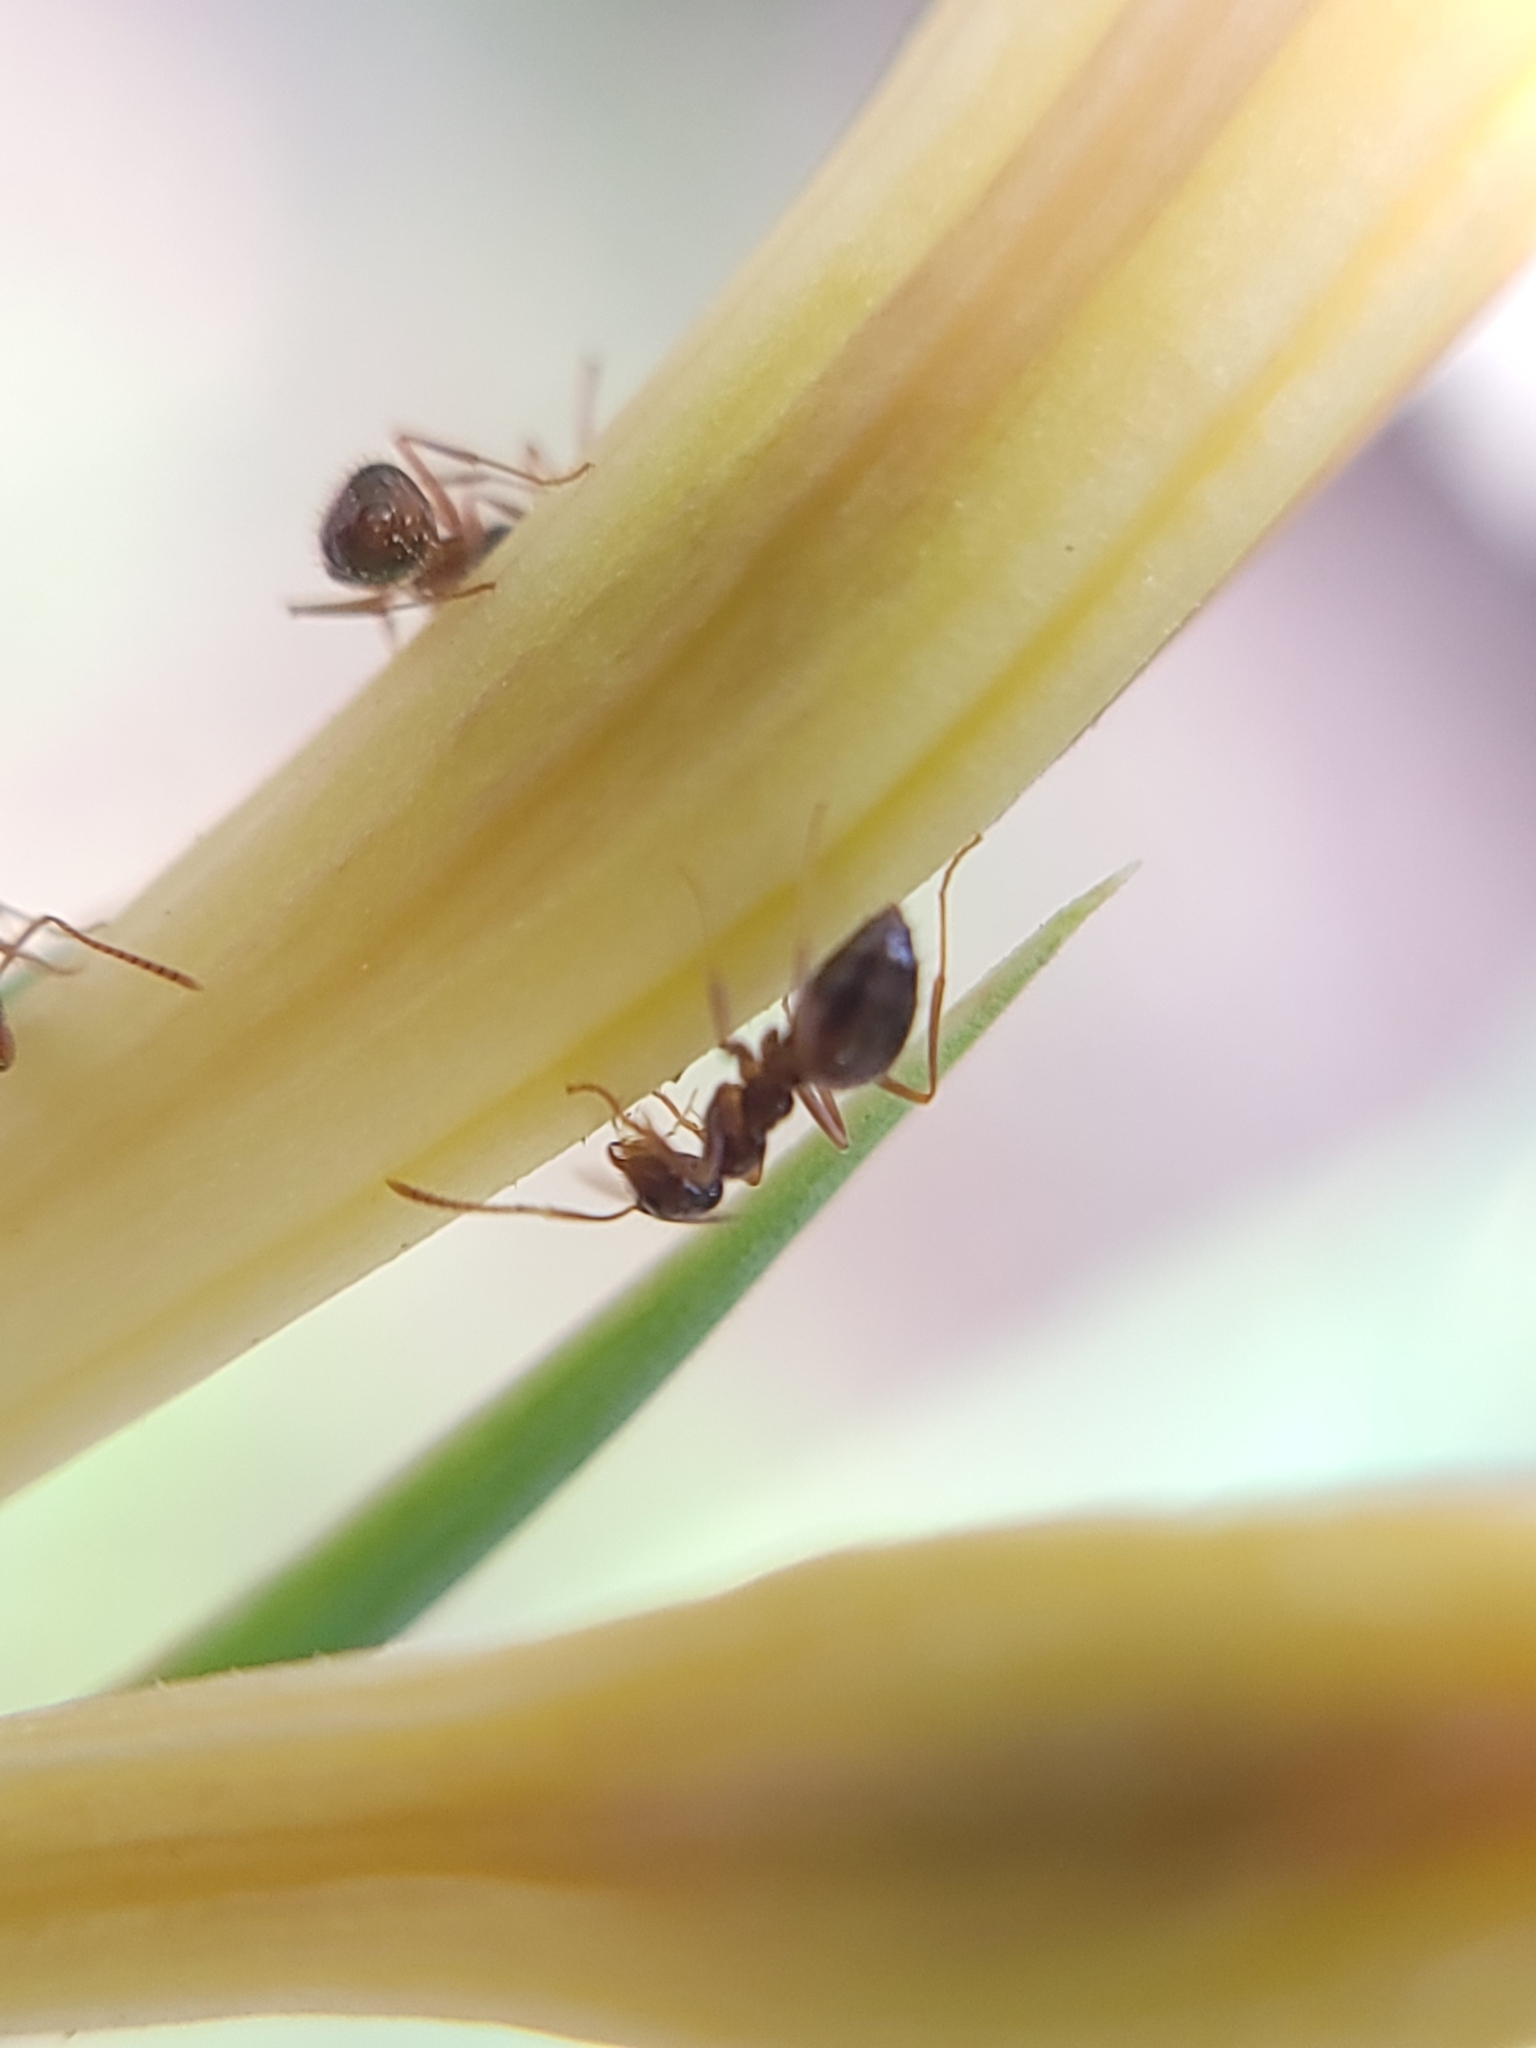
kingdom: Animalia
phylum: Arthropoda
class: Insecta
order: Hymenoptera
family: Formicidae
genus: Prenolepis
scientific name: Prenolepis imparis
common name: Small honey ant
